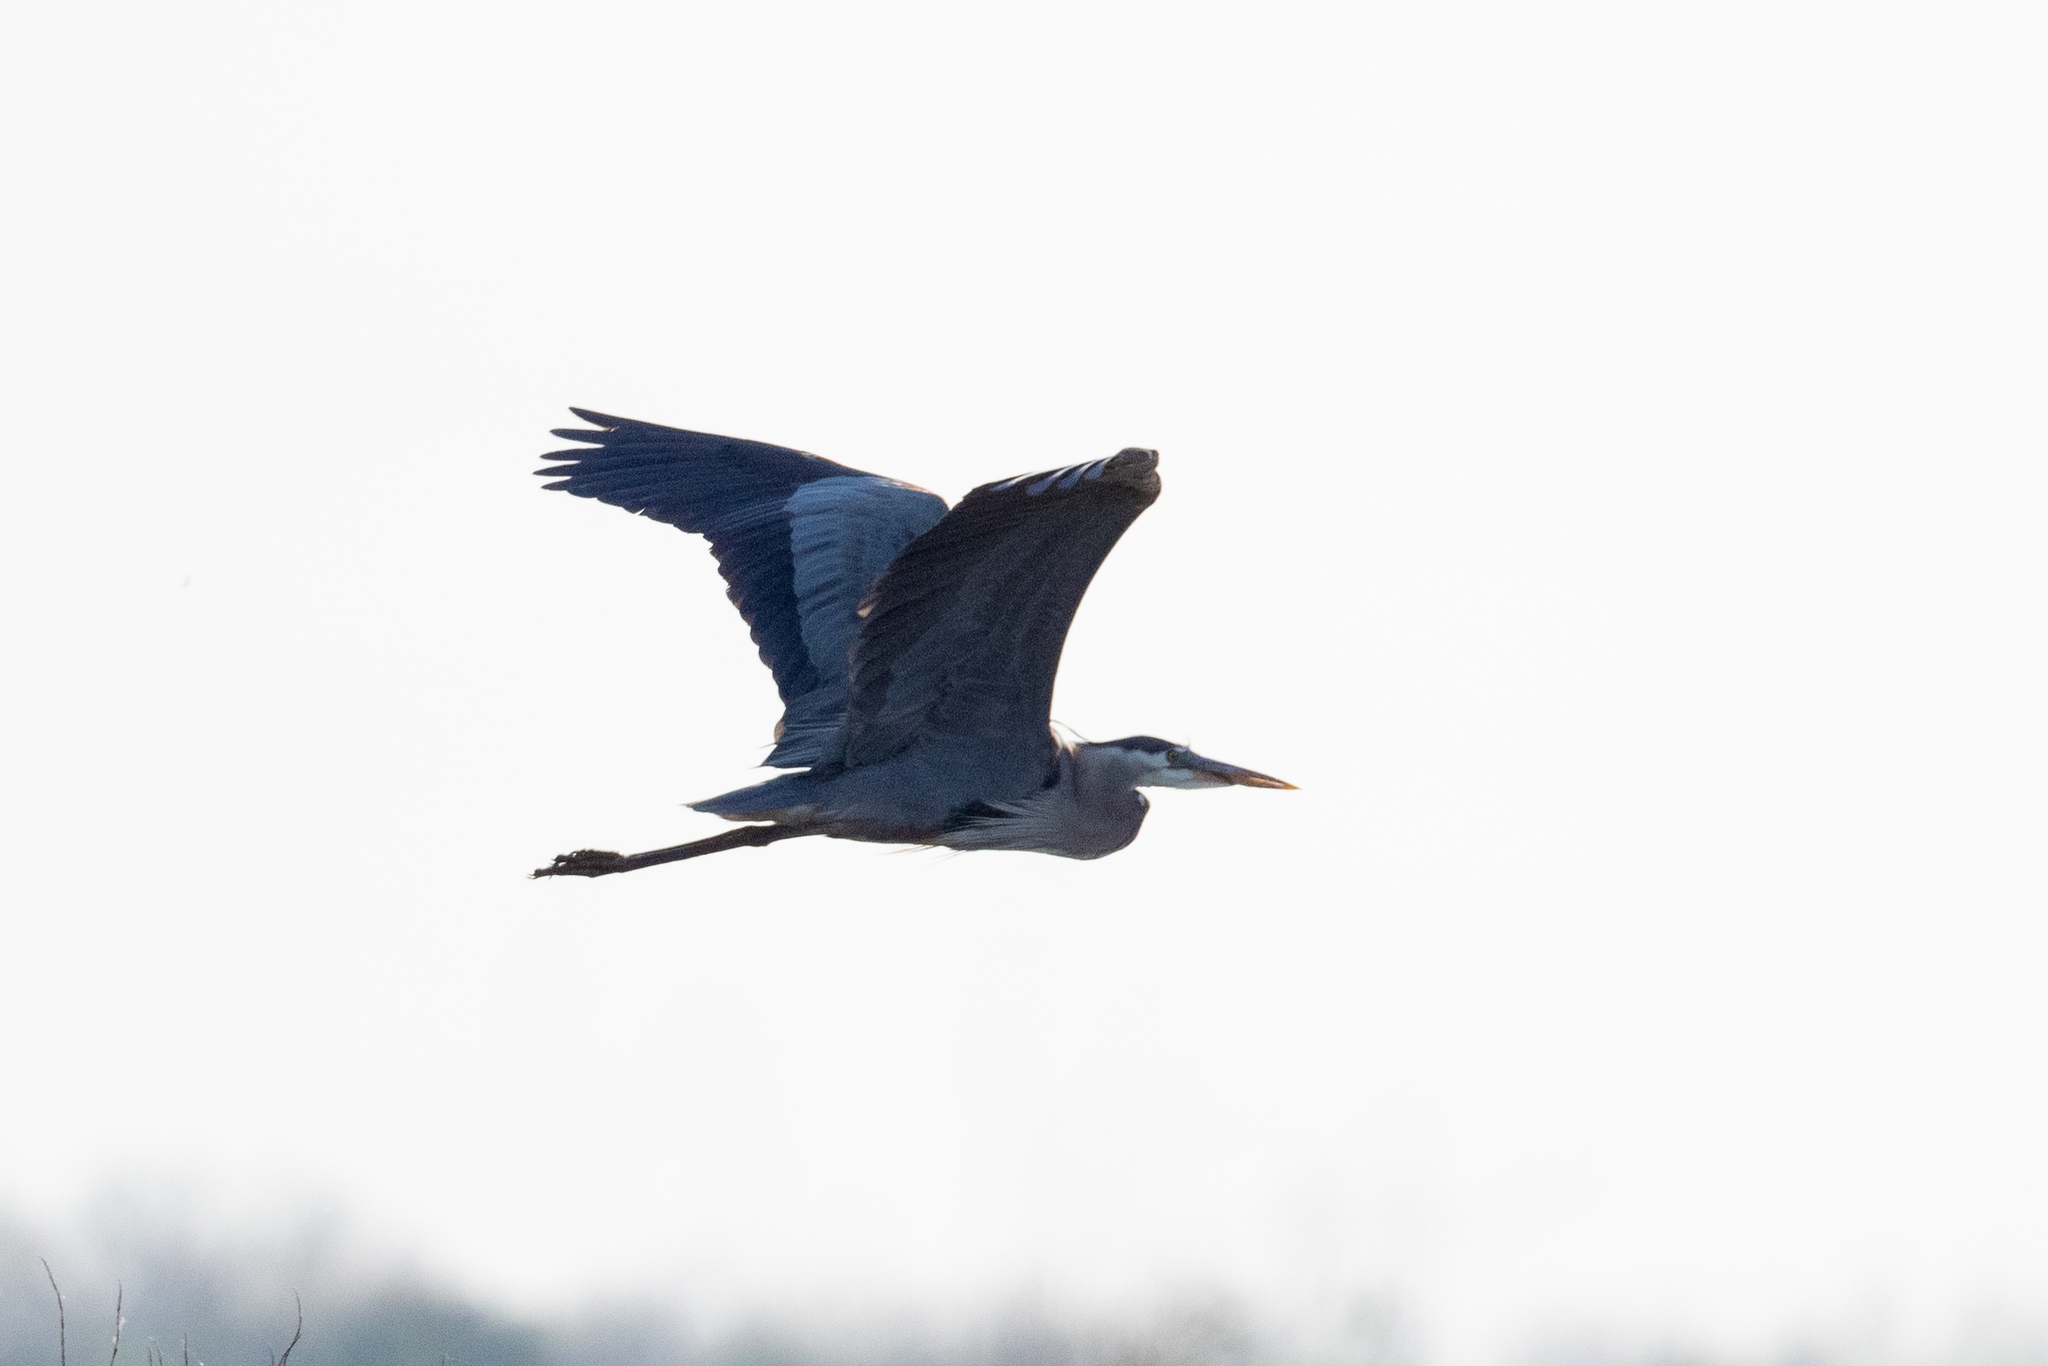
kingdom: Animalia
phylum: Chordata
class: Aves
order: Pelecaniformes
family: Ardeidae
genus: Ardea
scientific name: Ardea herodias
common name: Great blue heron
